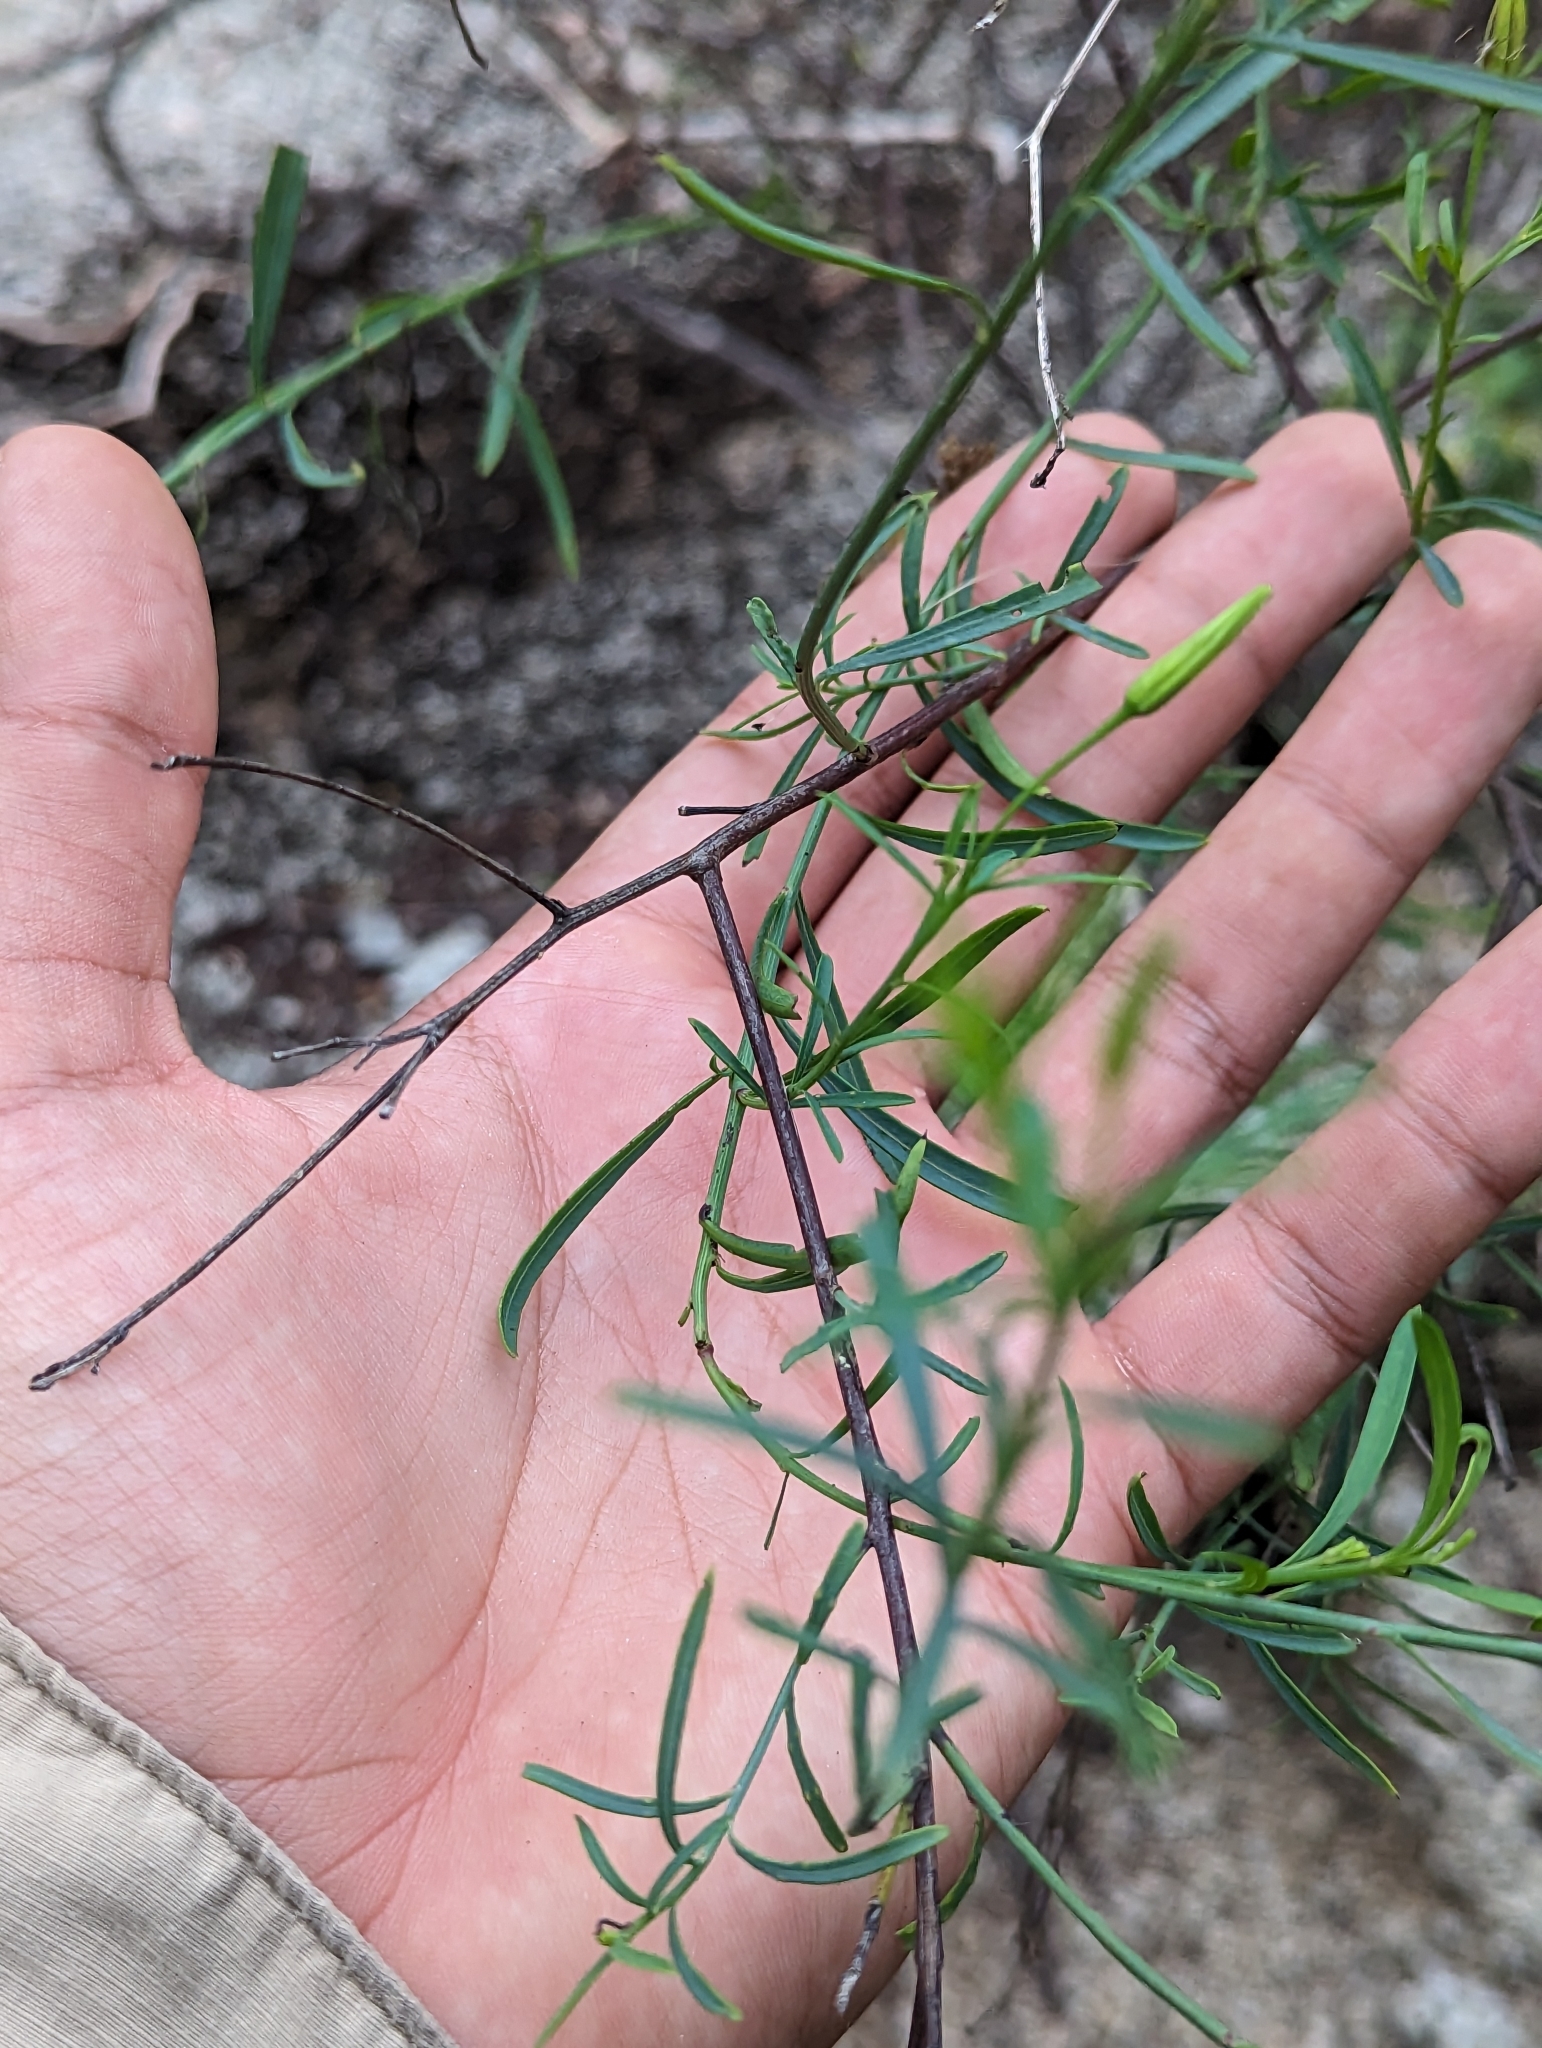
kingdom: Plantae
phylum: Tracheophyta
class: Magnoliopsida
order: Asterales
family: Asteraceae
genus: Porophyllum
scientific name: Porophyllum gracile
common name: Odora
